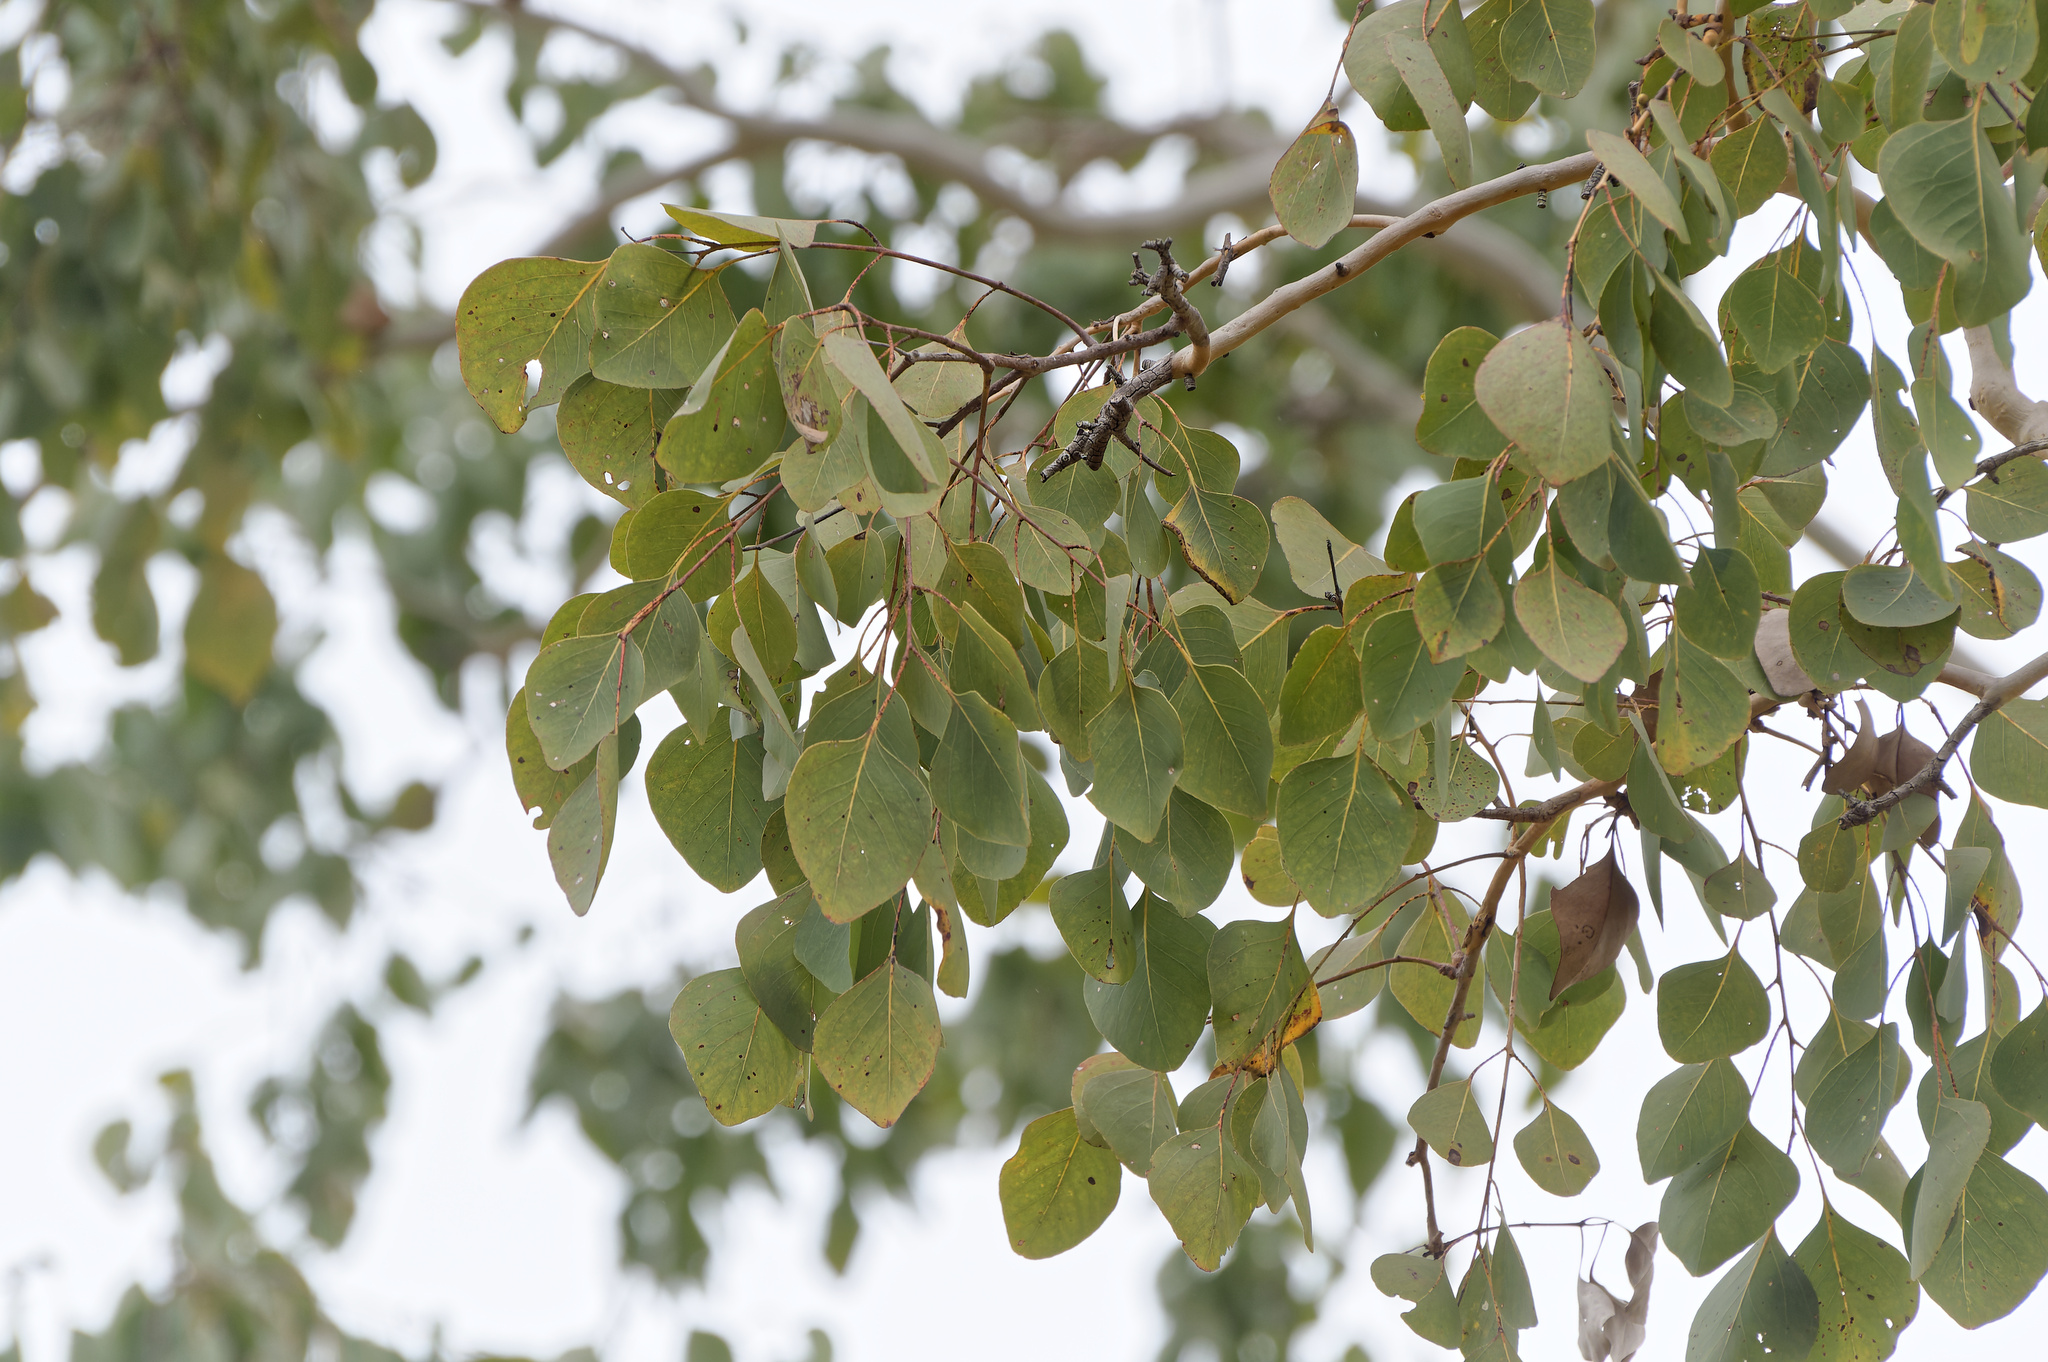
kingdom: Plantae
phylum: Tracheophyta
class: Magnoliopsida
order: Myrtales
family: Myrtaceae
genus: Eucalyptus
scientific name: Eucalyptus platyphylla
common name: Poplar-gum
